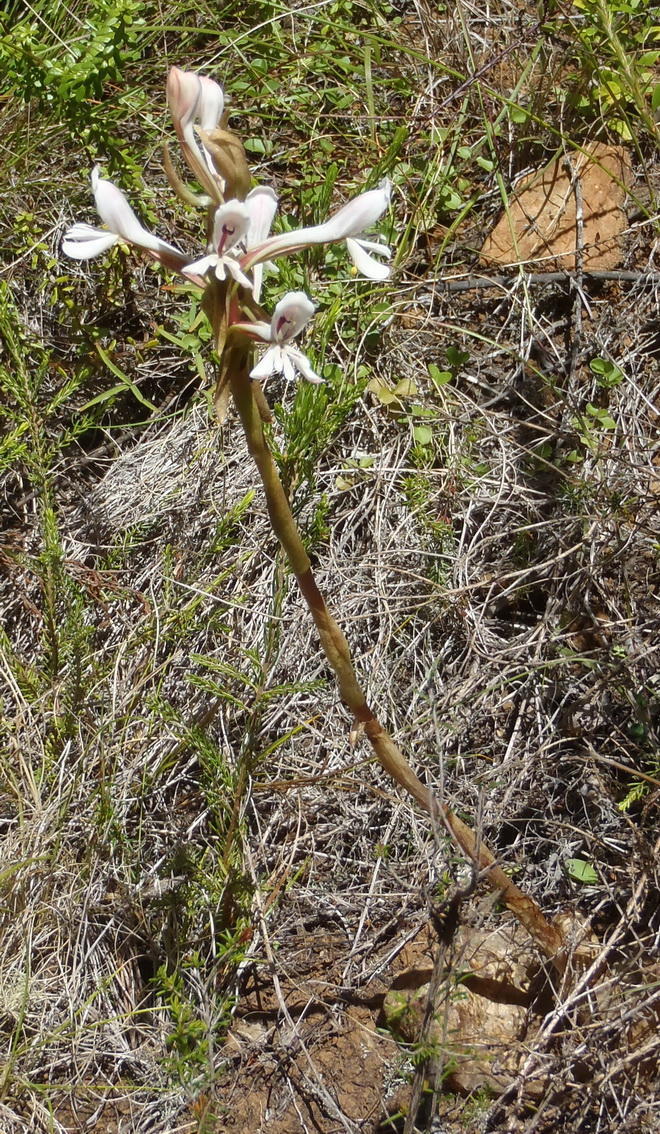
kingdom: Plantae
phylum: Tracheophyta
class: Liliopsida
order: Asparagales
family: Orchidaceae
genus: Satyrium
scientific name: Satyrium longicolle
